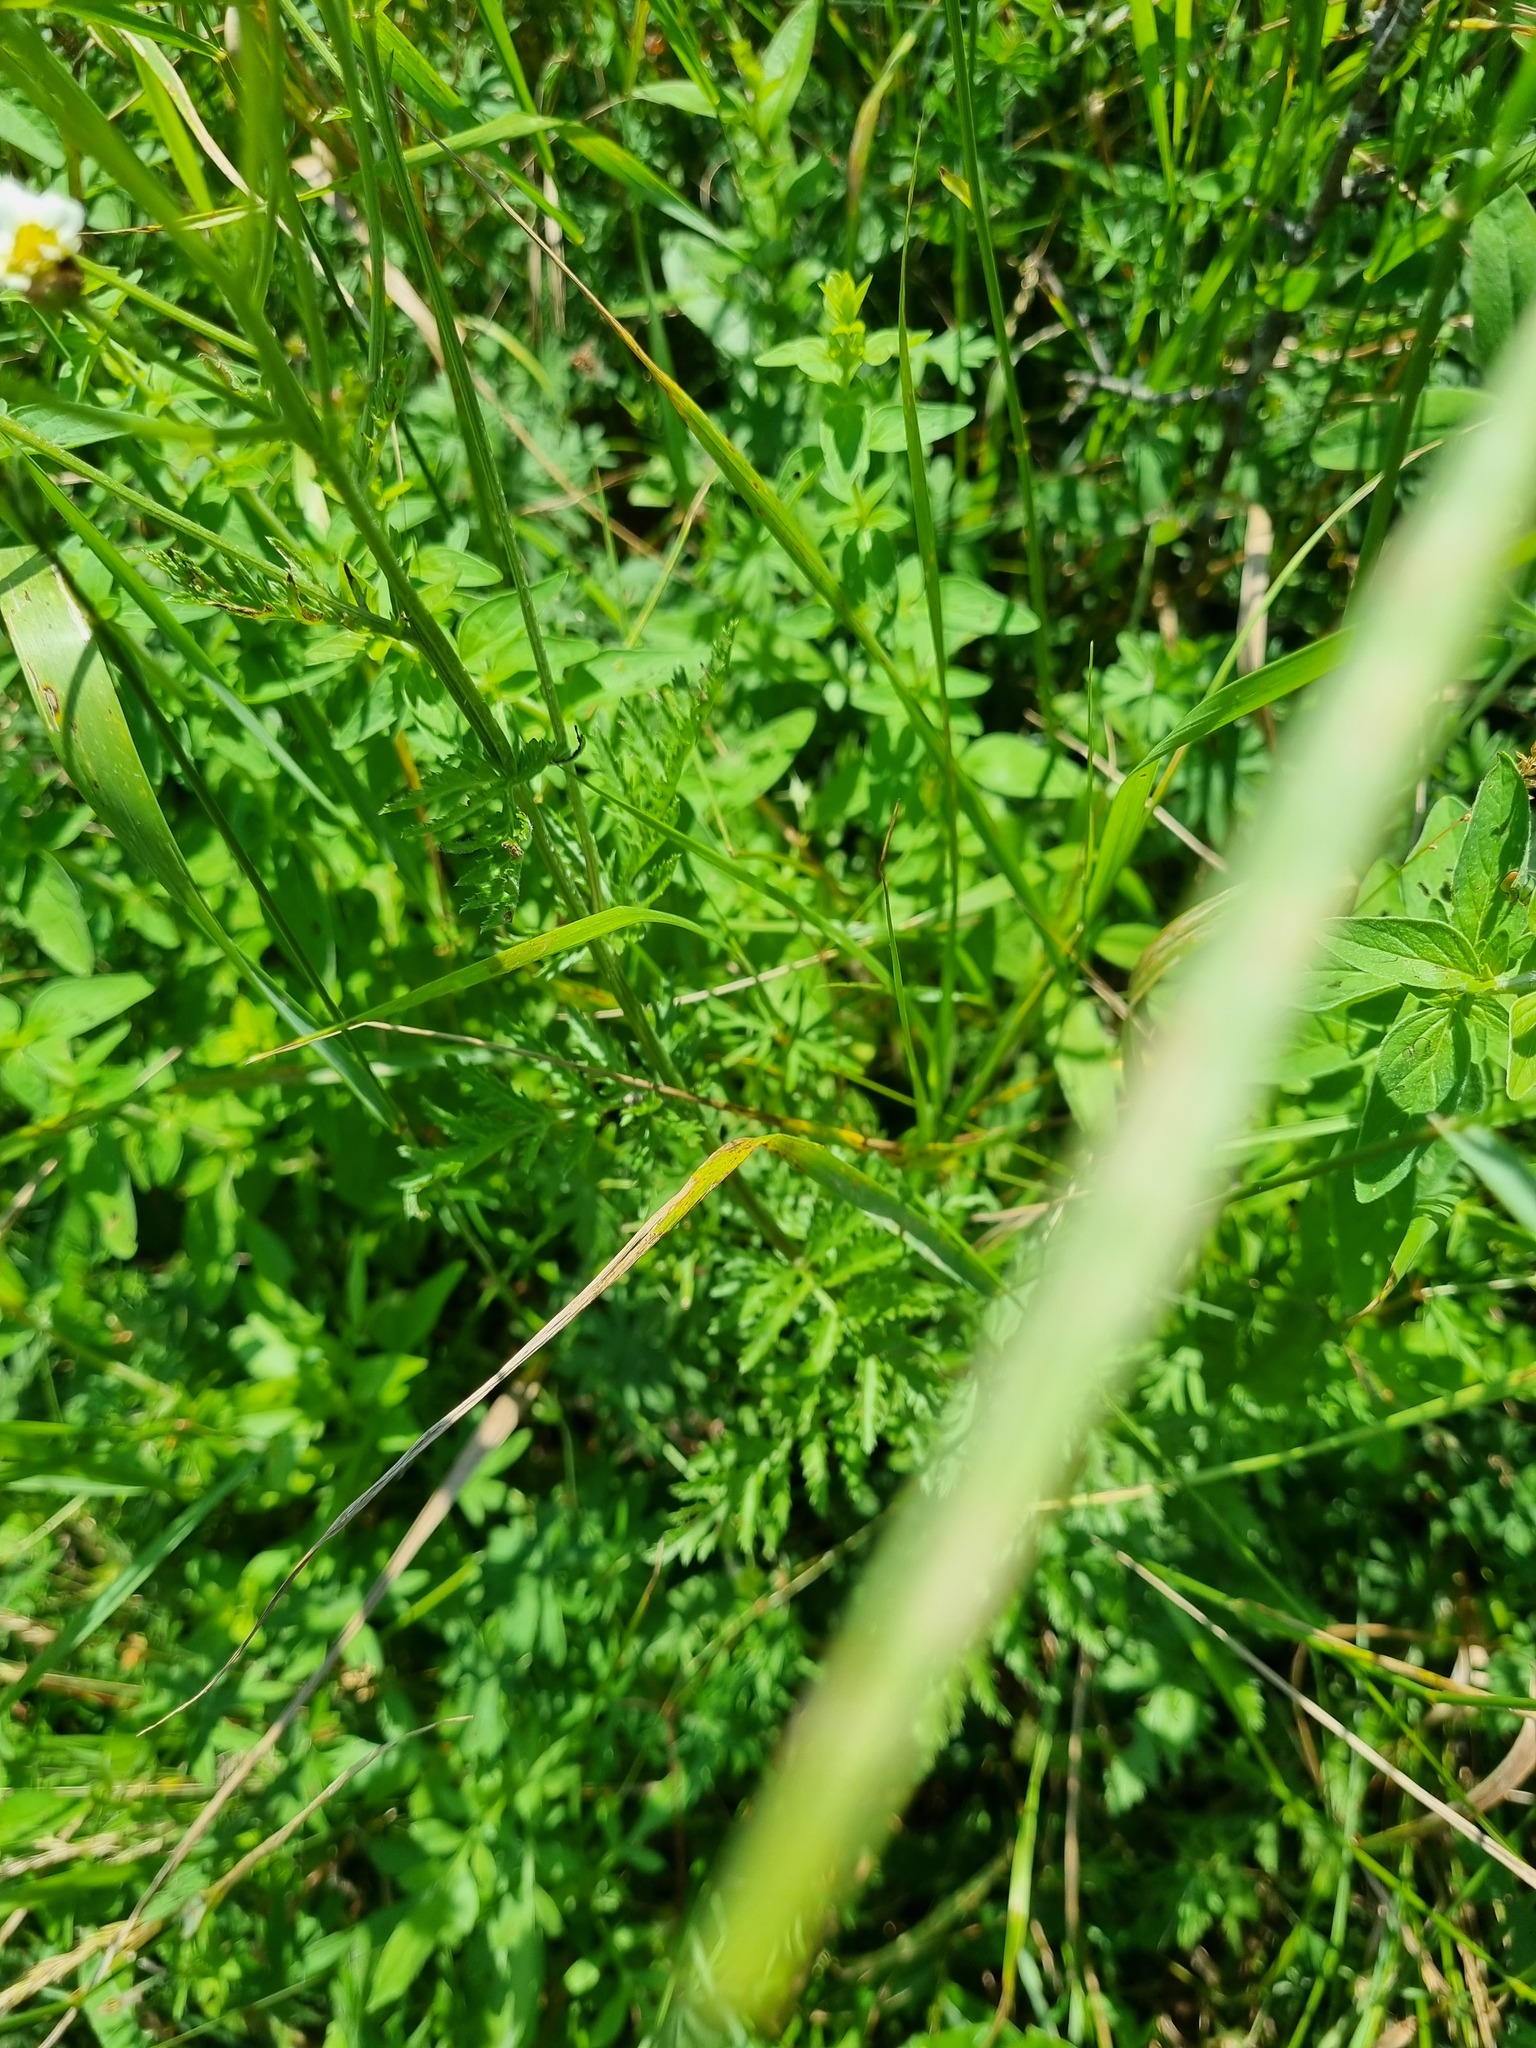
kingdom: Plantae
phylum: Tracheophyta
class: Magnoliopsida
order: Asterales
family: Asteraceae
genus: Tanacetum
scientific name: Tanacetum corymbosum
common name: Scentless feverfew
